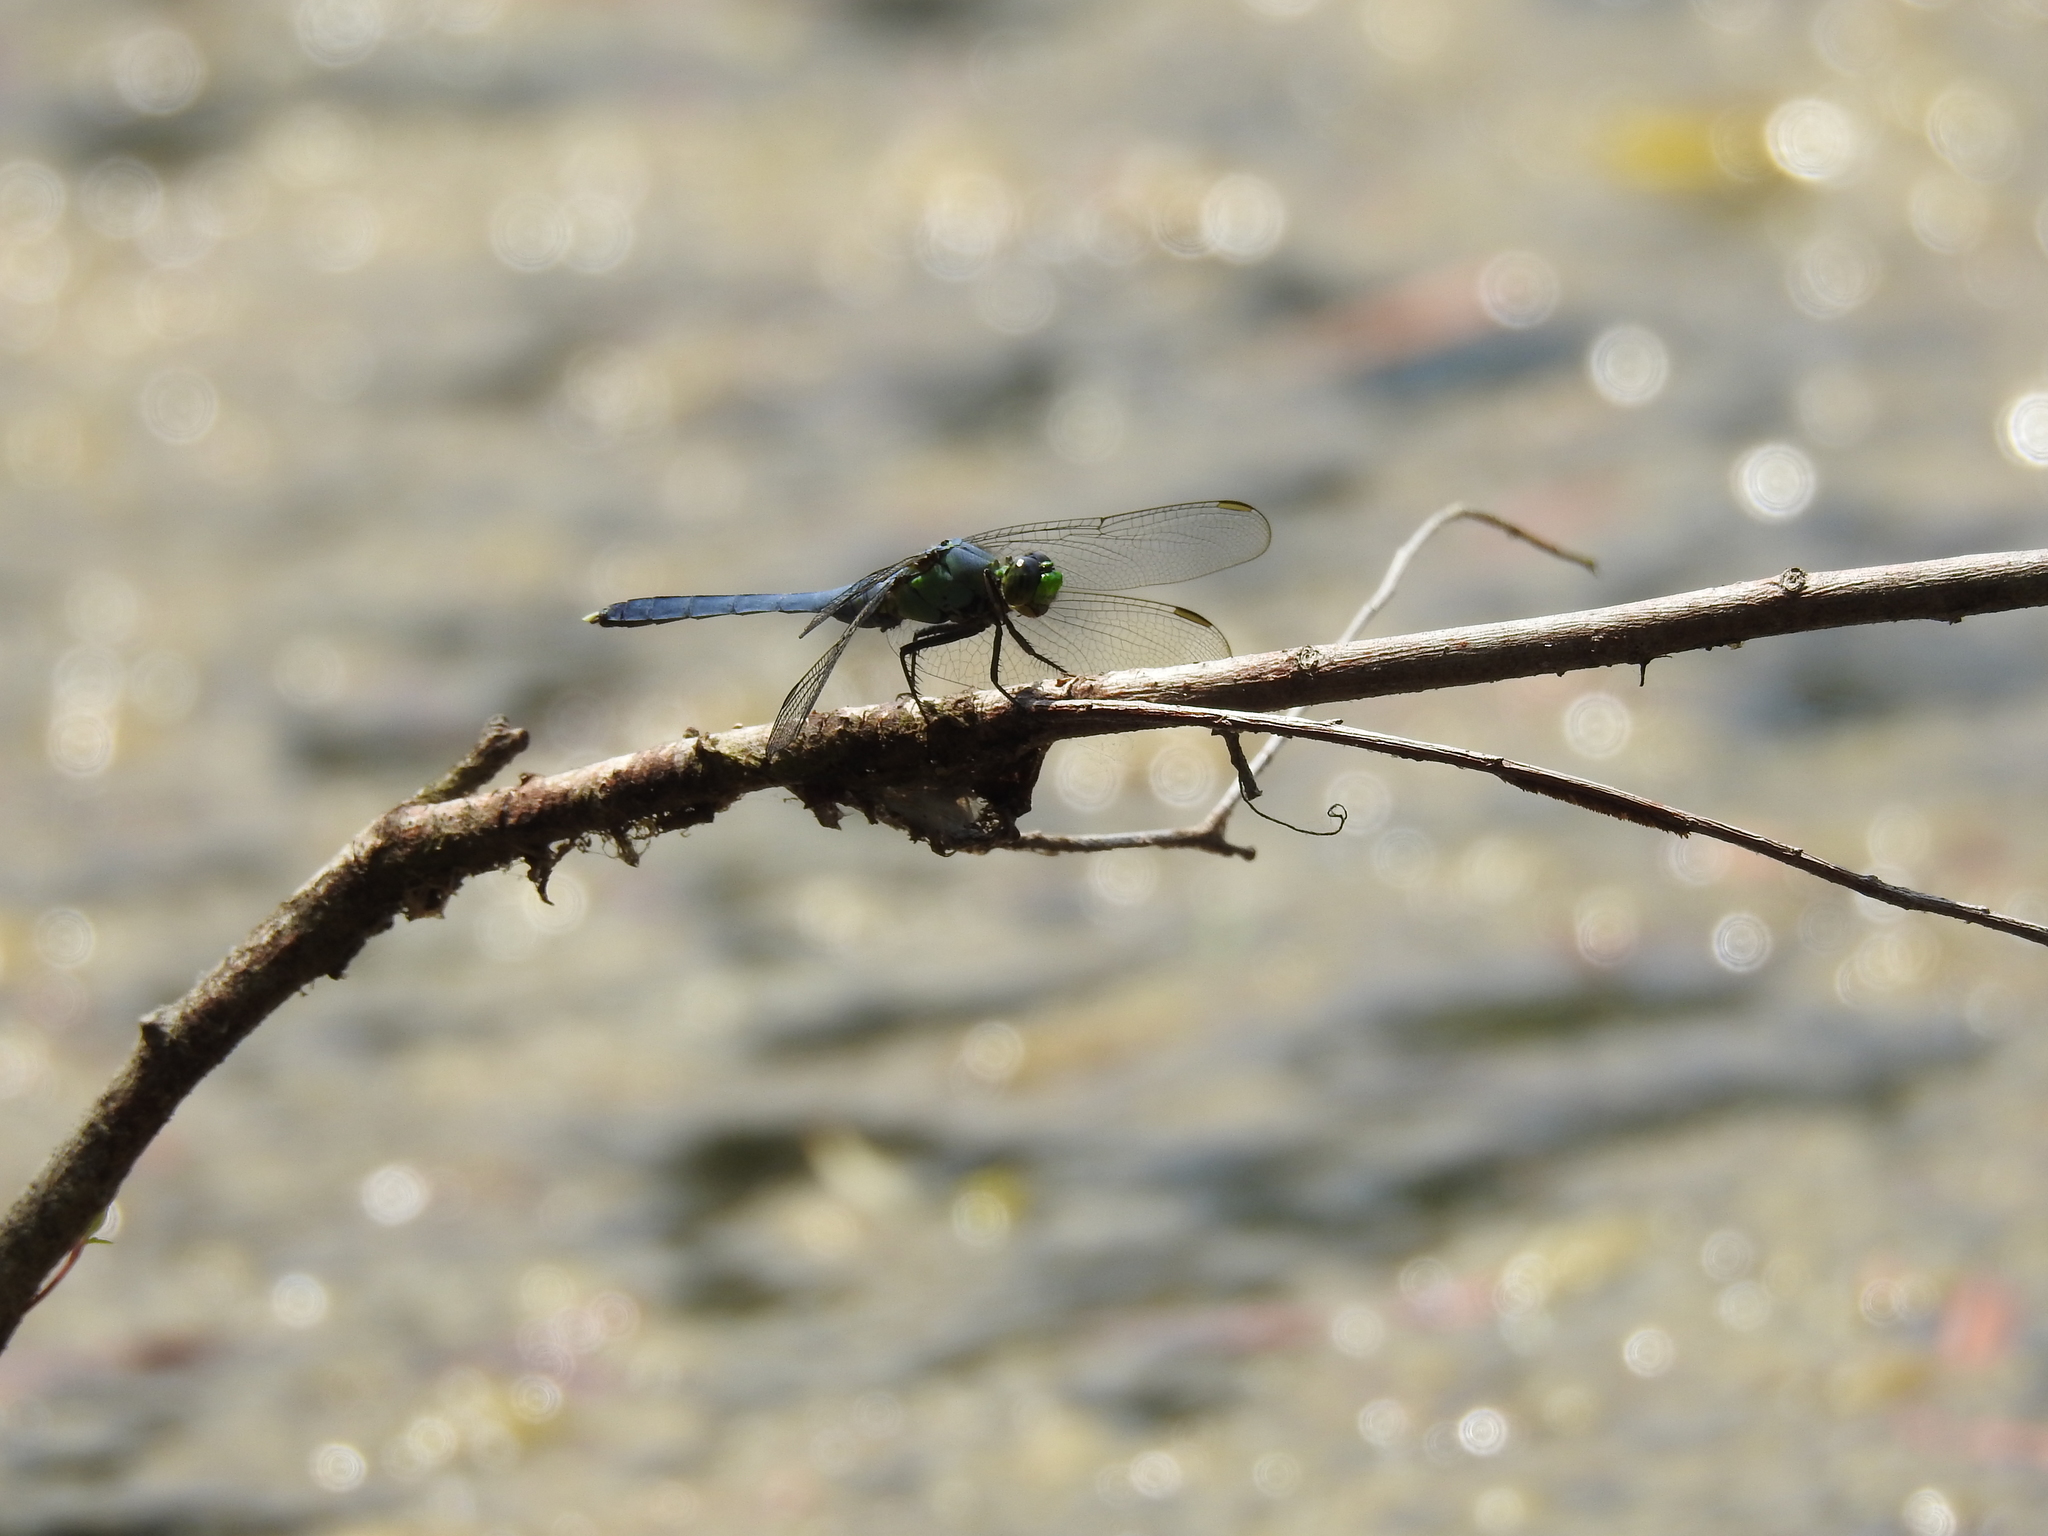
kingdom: Animalia
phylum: Arthropoda
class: Insecta
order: Odonata
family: Libellulidae
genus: Erythemis
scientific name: Erythemis simplicicollis
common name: Eastern pondhawk
